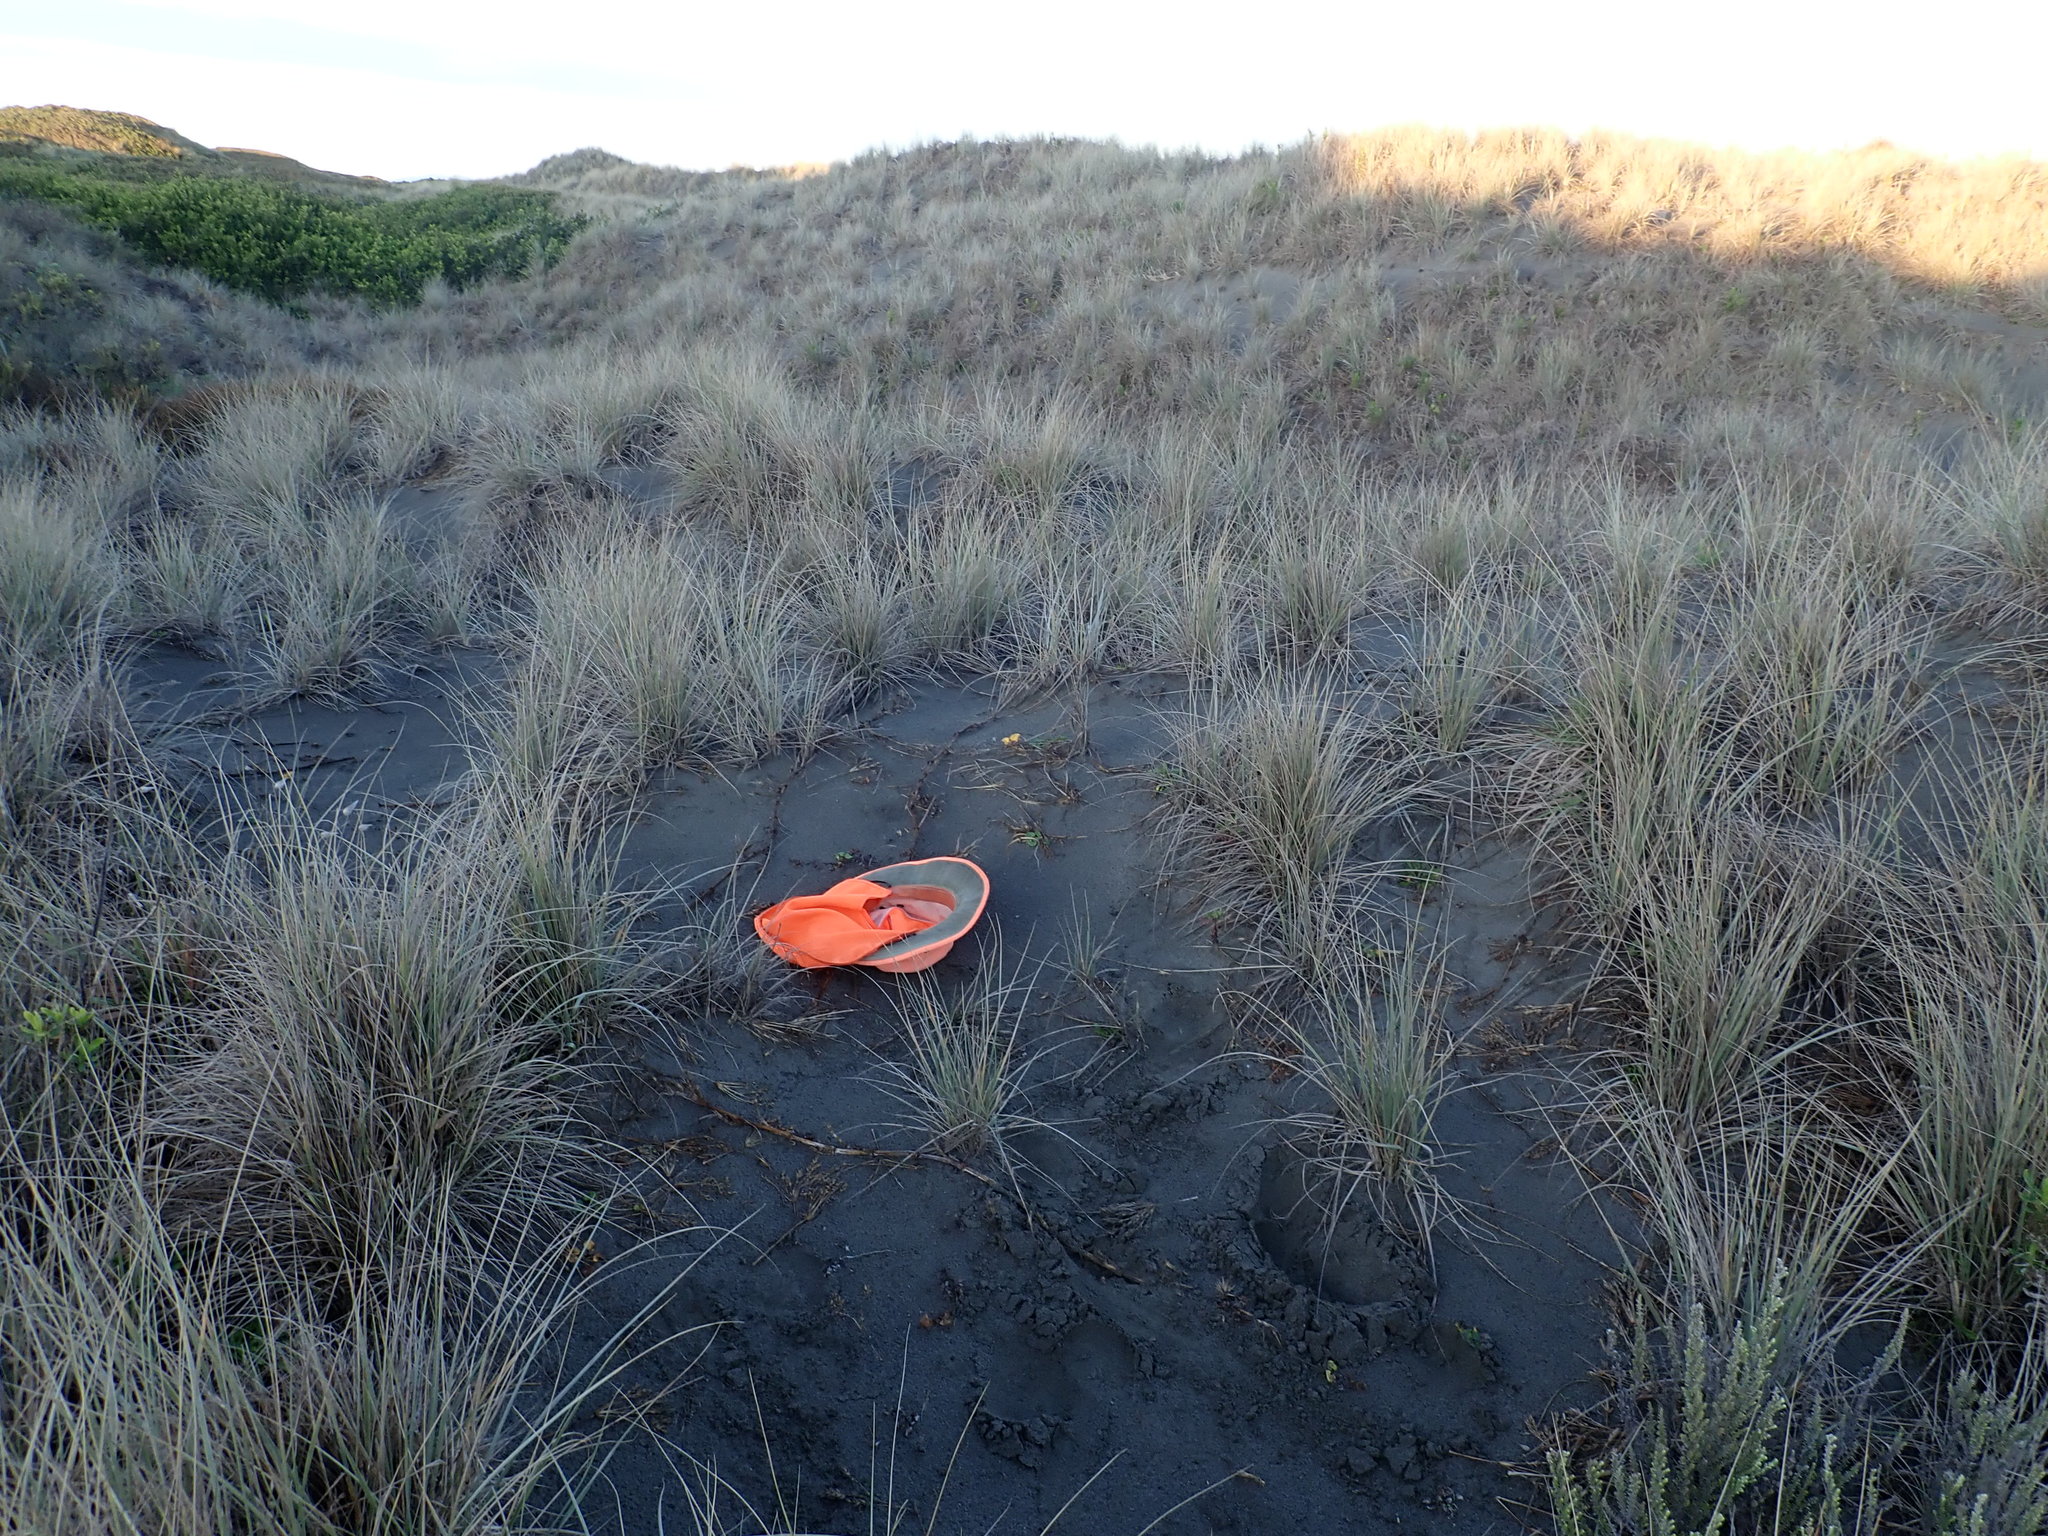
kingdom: Plantae
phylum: Tracheophyta
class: Magnoliopsida
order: Solanales
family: Convolvulaceae
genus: Calystegia
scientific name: Calystegia soldanella
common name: Sea bindweed
